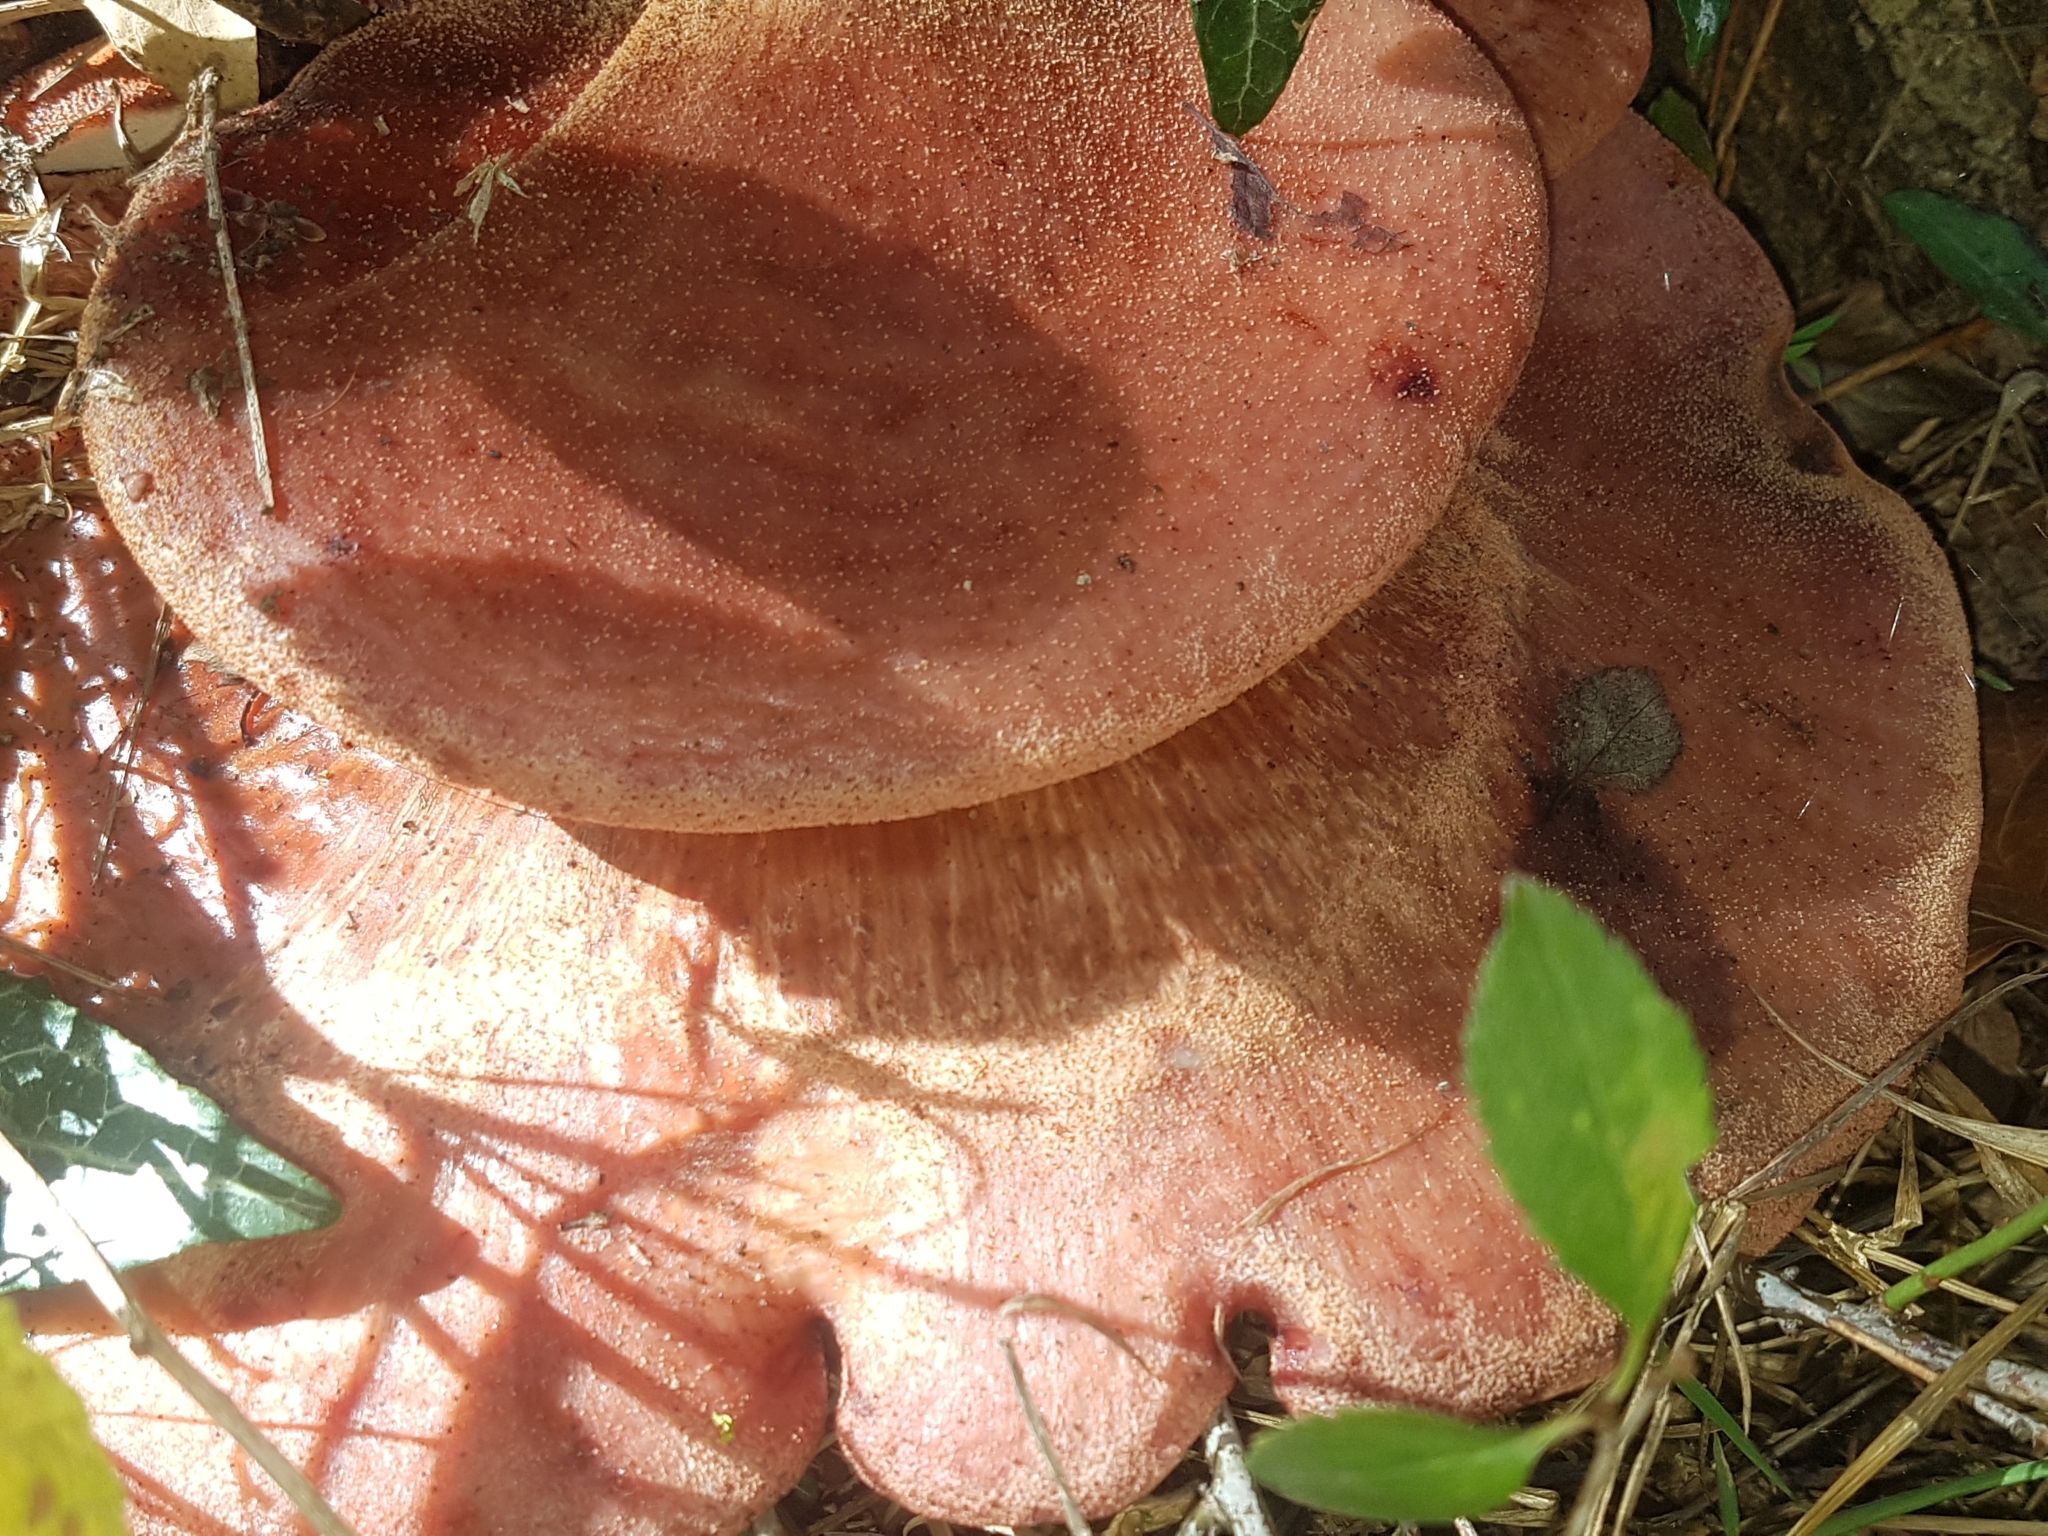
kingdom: Fungi
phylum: Basidiomycota
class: Agaricomycetes
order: Agaricales
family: Fistulinaceae
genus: Fistulina
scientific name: Fistulina hepatica
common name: Beef-steak fungus
